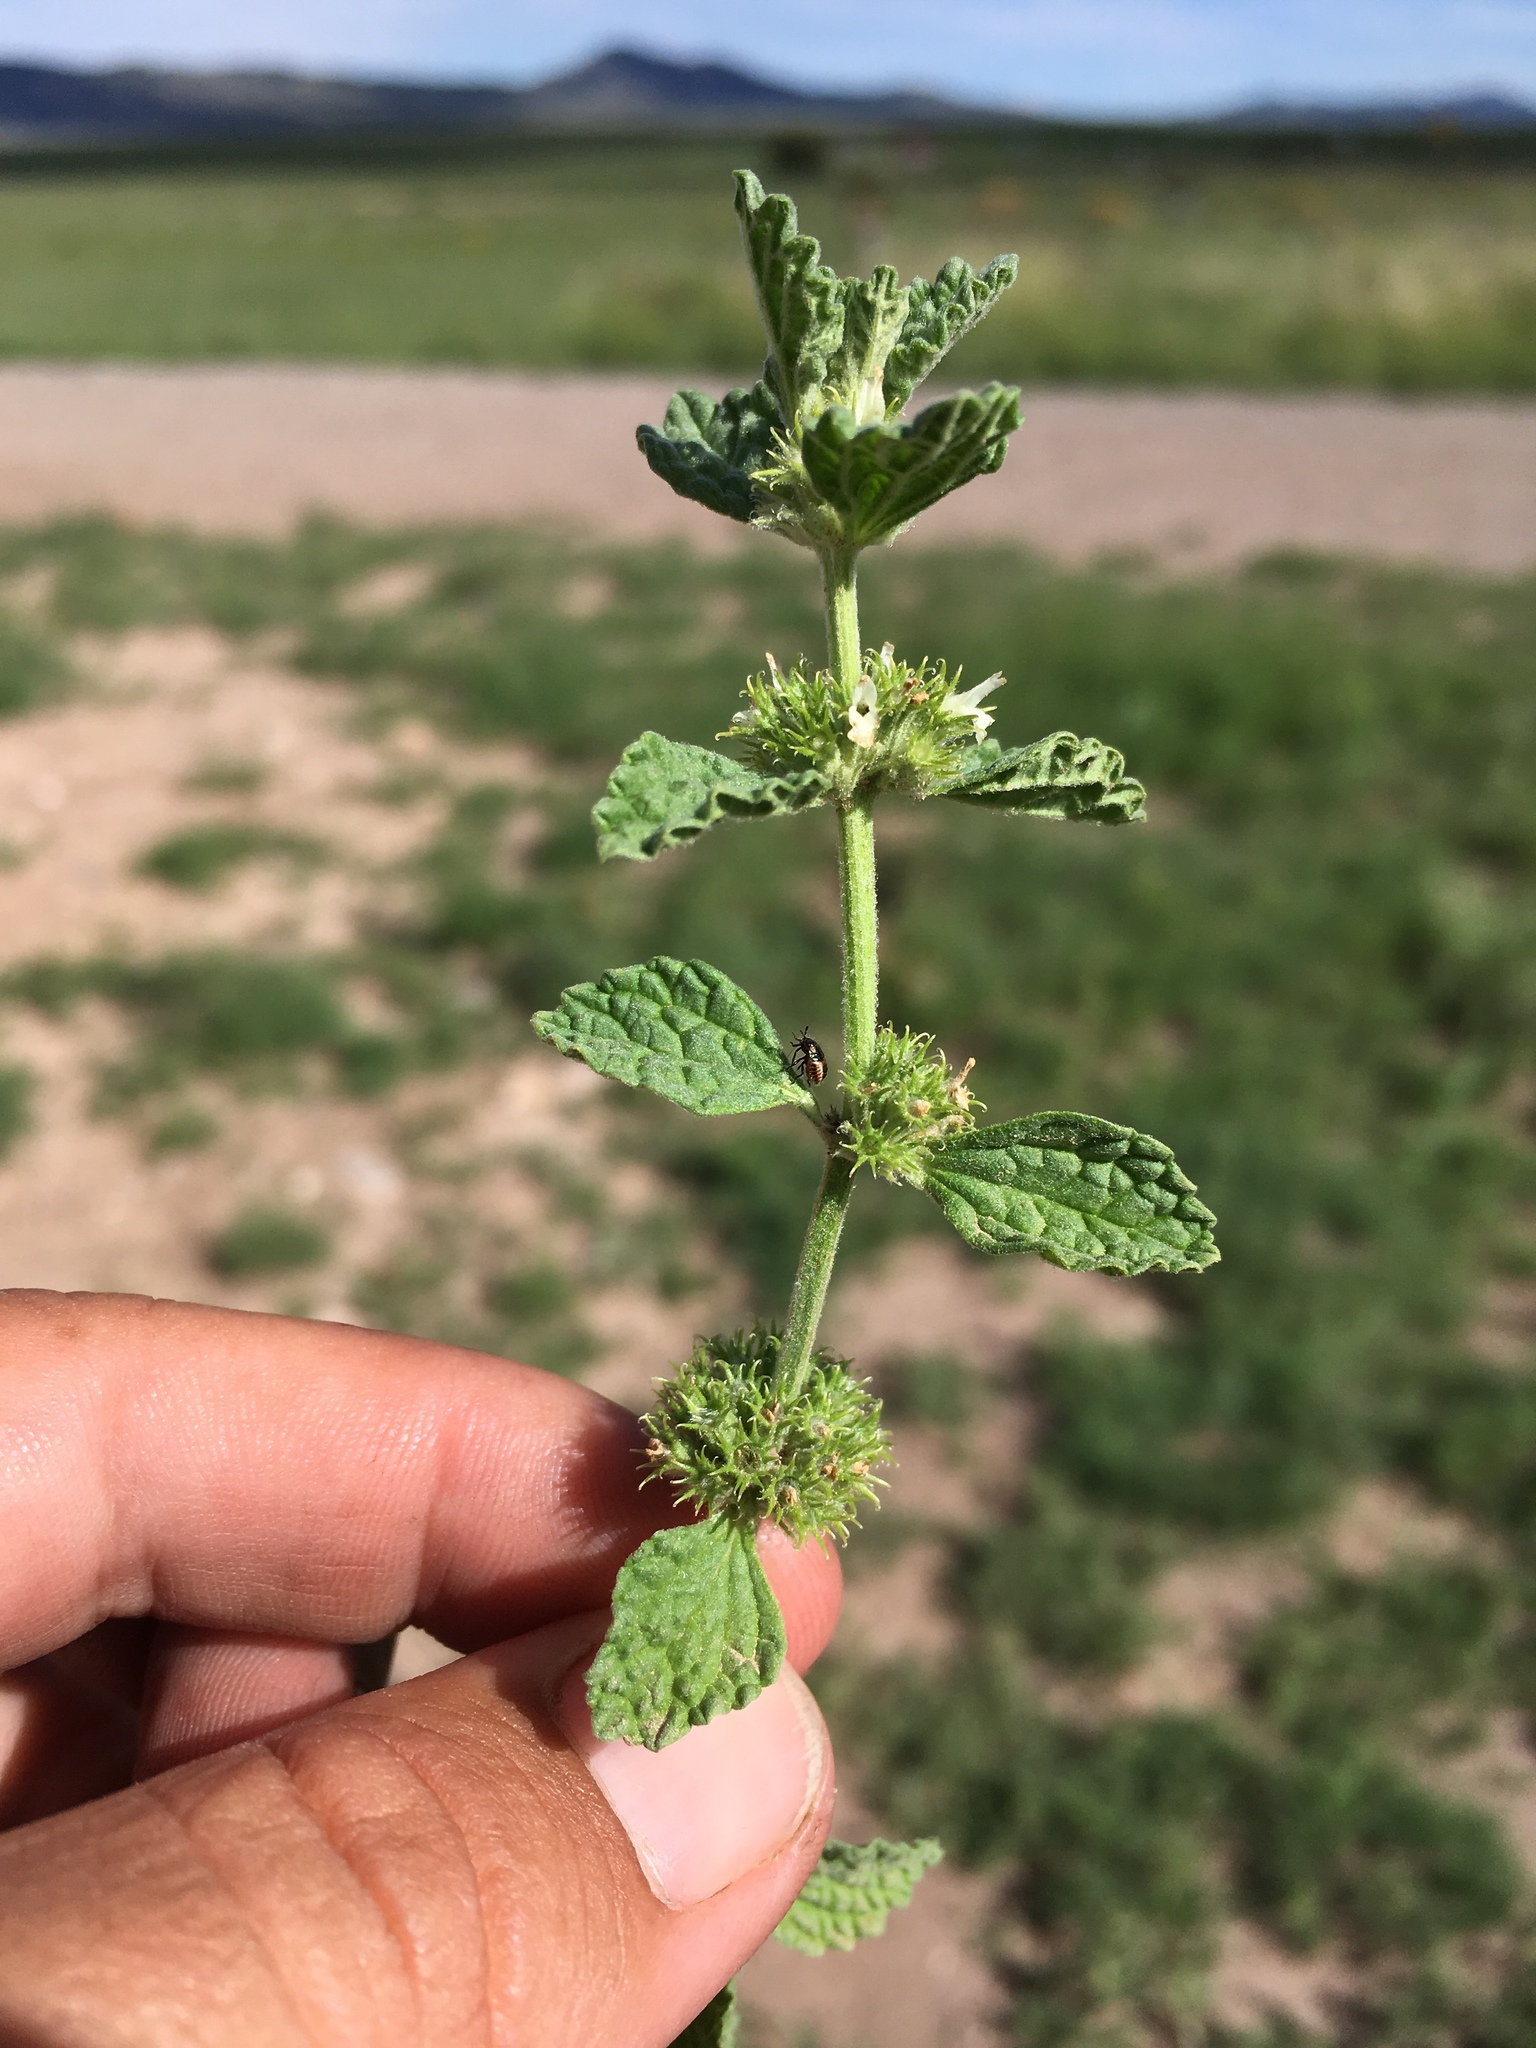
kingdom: Plantae
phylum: Tracheophyta
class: Magnoliopsida
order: Lamiales
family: Lamiaceae
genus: Marrubium
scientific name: Marrubium vulgare
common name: Horehound
